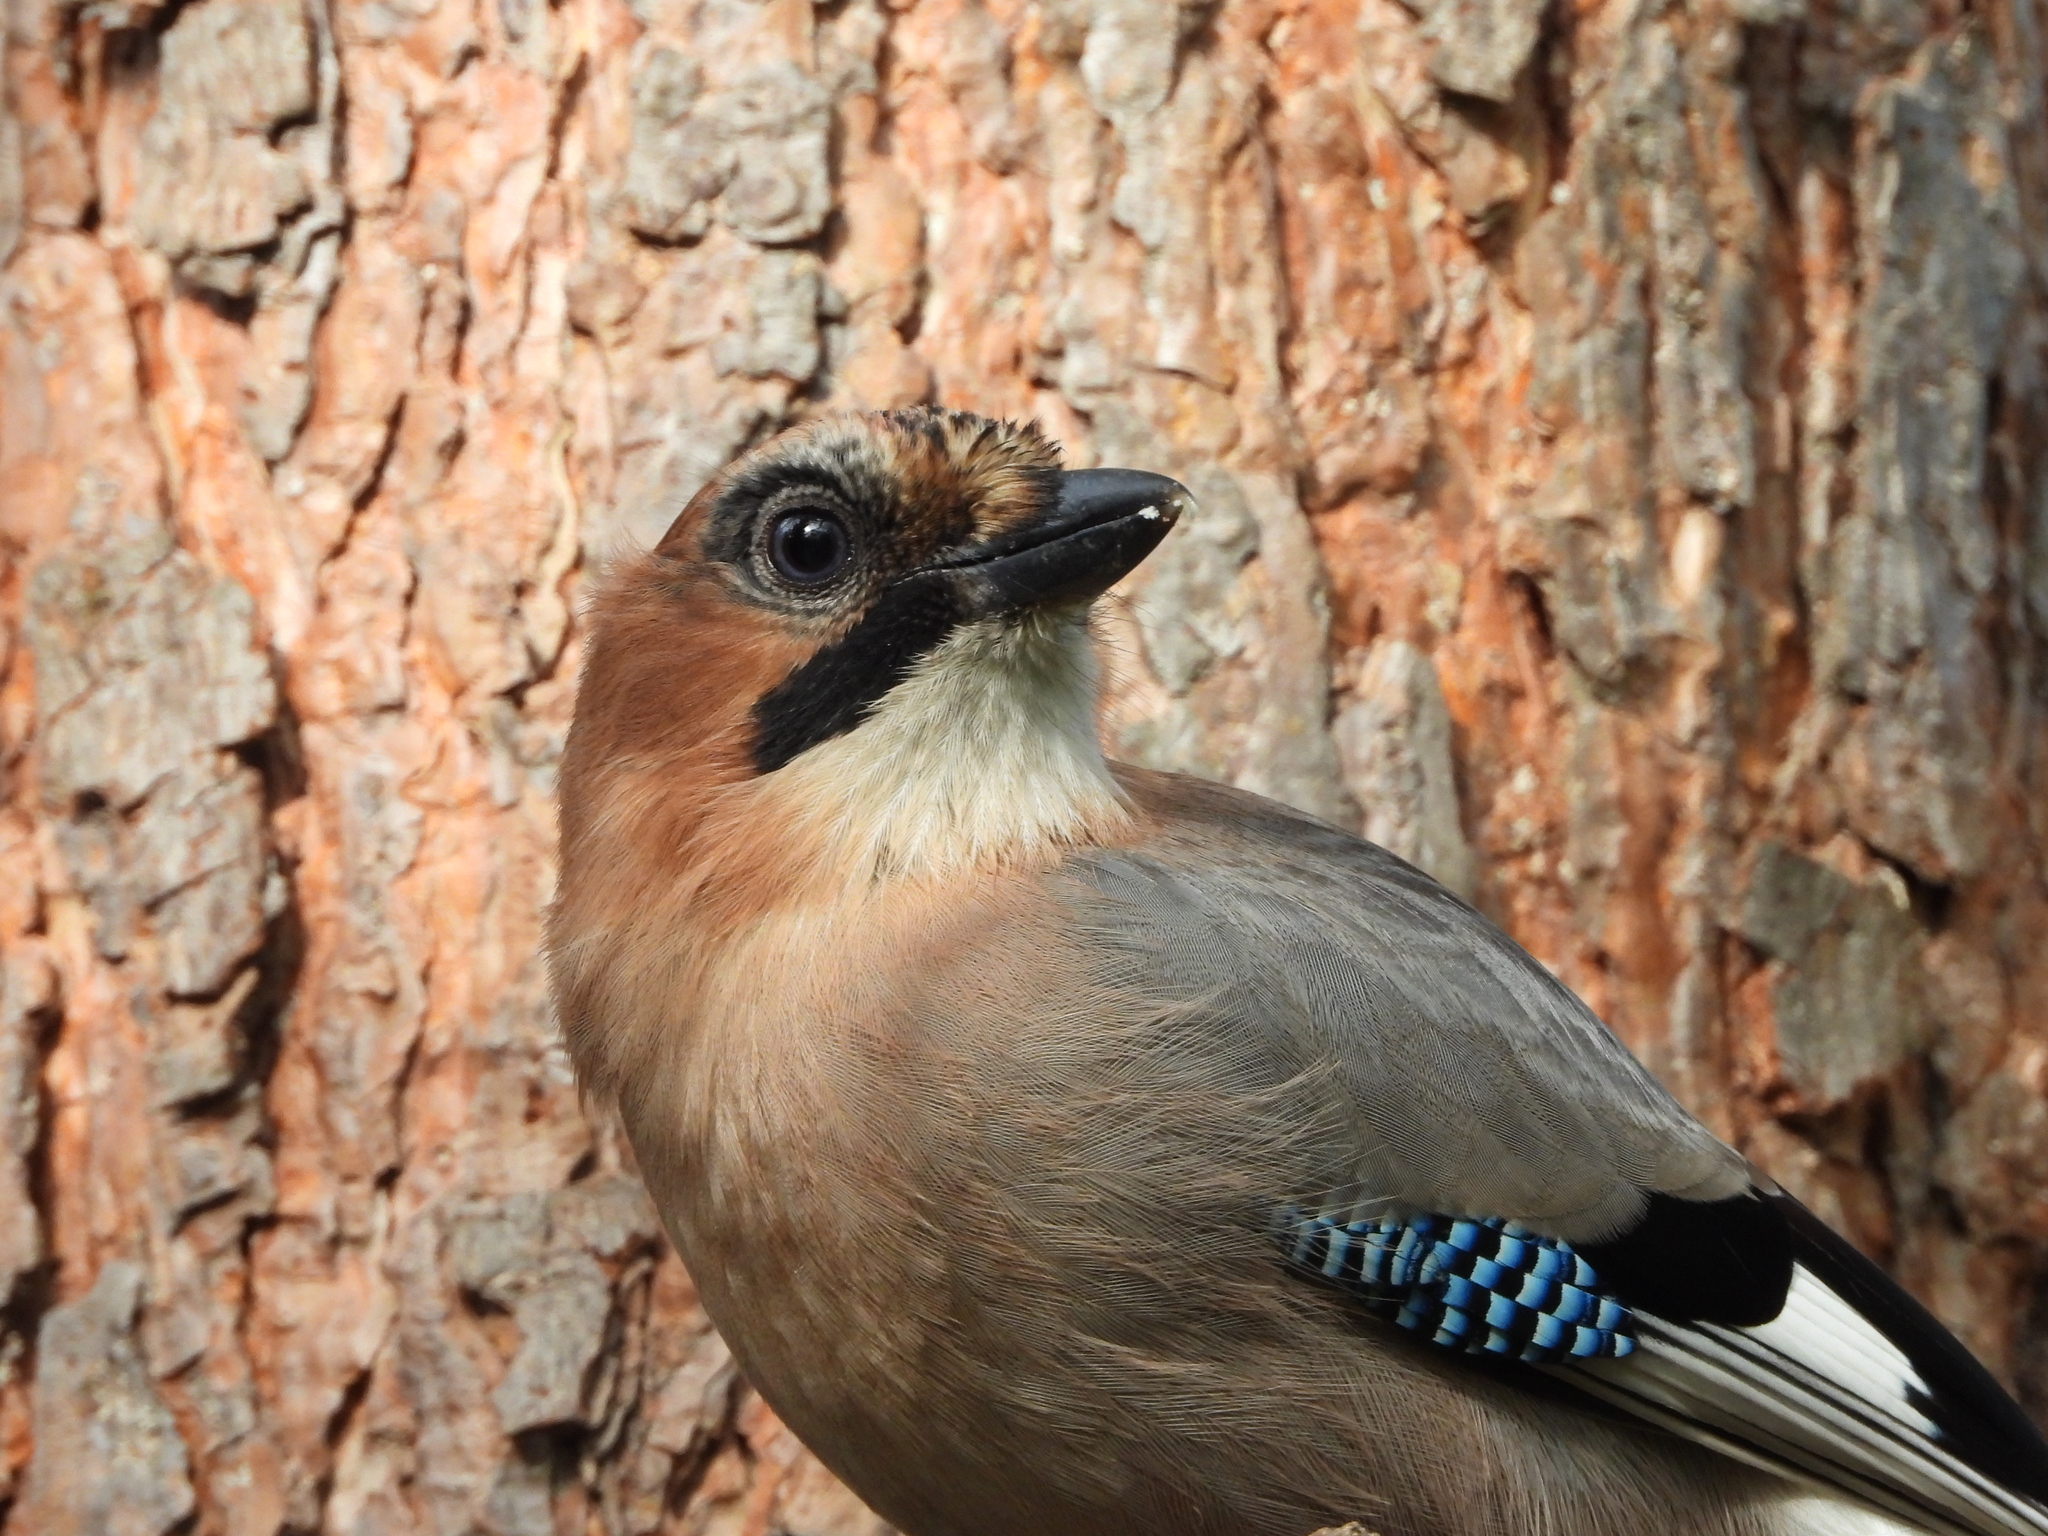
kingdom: Animalia
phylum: Chordata
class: Aves
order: Passeriformes
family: Corvidae
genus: Garrulus
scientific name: Garrulus glandarius
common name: Eurasian jay
